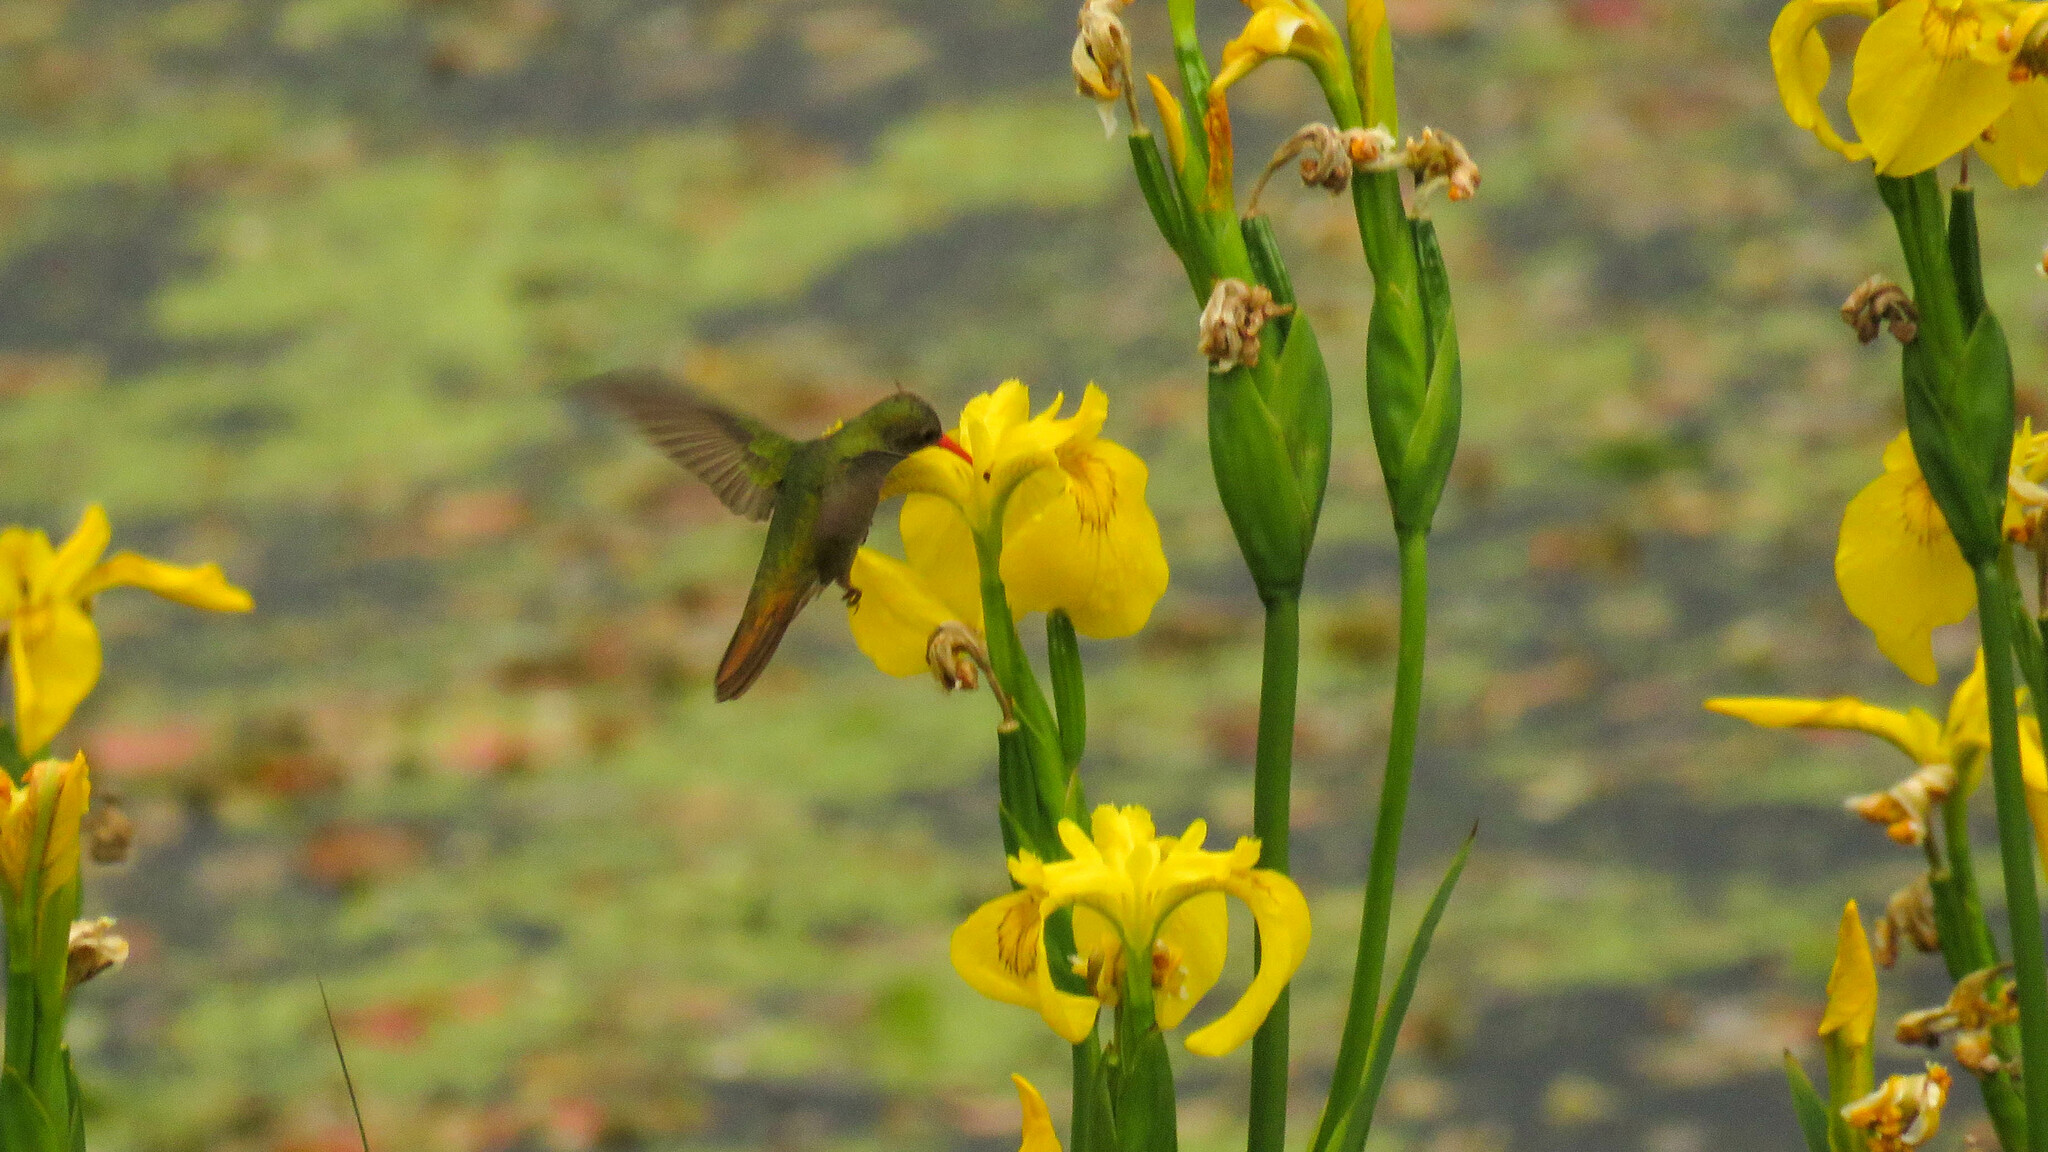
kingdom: Animalia
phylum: Chordata
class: Aves
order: Apodiformes
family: Trochilidae
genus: Hylocharis
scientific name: Hylocharis chrysura
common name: Gilded sapphire
